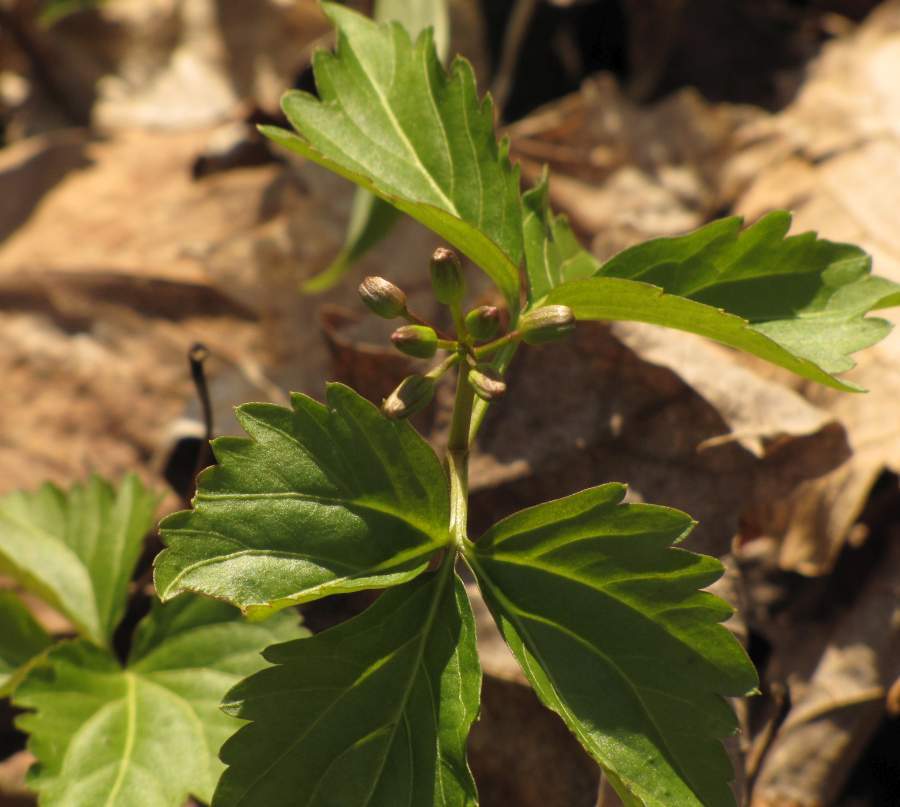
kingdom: Plantae
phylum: Tracheophyta
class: Magnoliopsida
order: Brassicales
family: Brassicaceae
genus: Cardamine
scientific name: Cardamine diphylla
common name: Broad-leaved toothwort
